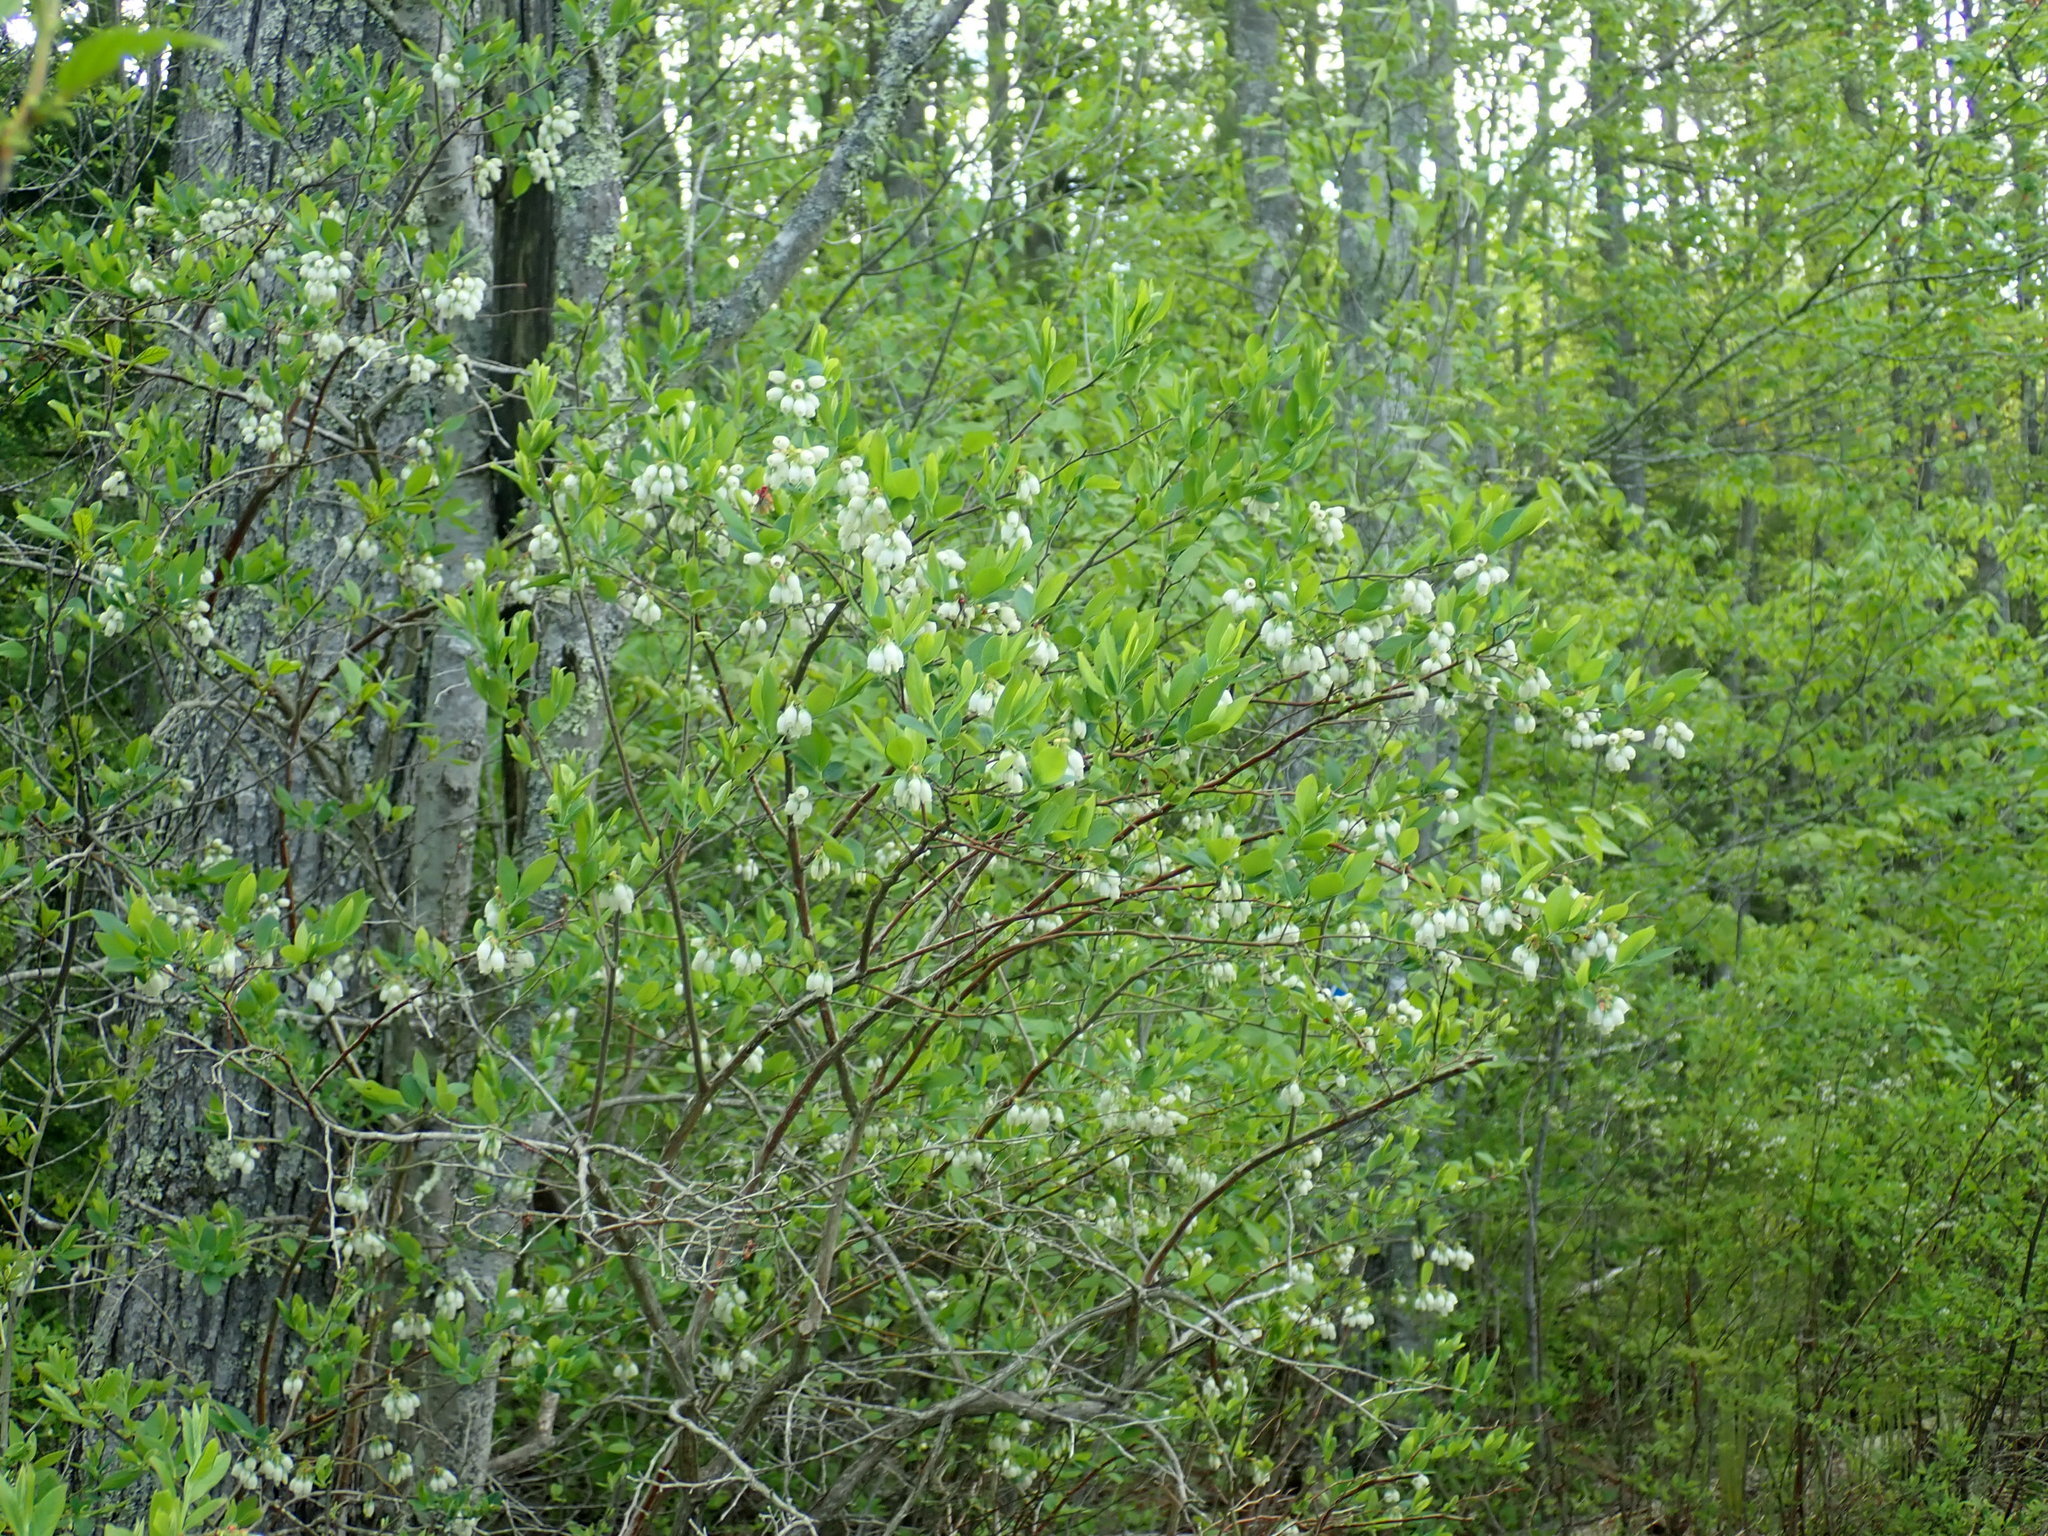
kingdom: Plantae
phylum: Tracheophyta
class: Magnoliopsida
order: Ericales
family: Ericaceae
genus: Vaccinium
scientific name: Vaccinium corymbosum
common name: Blueberry
